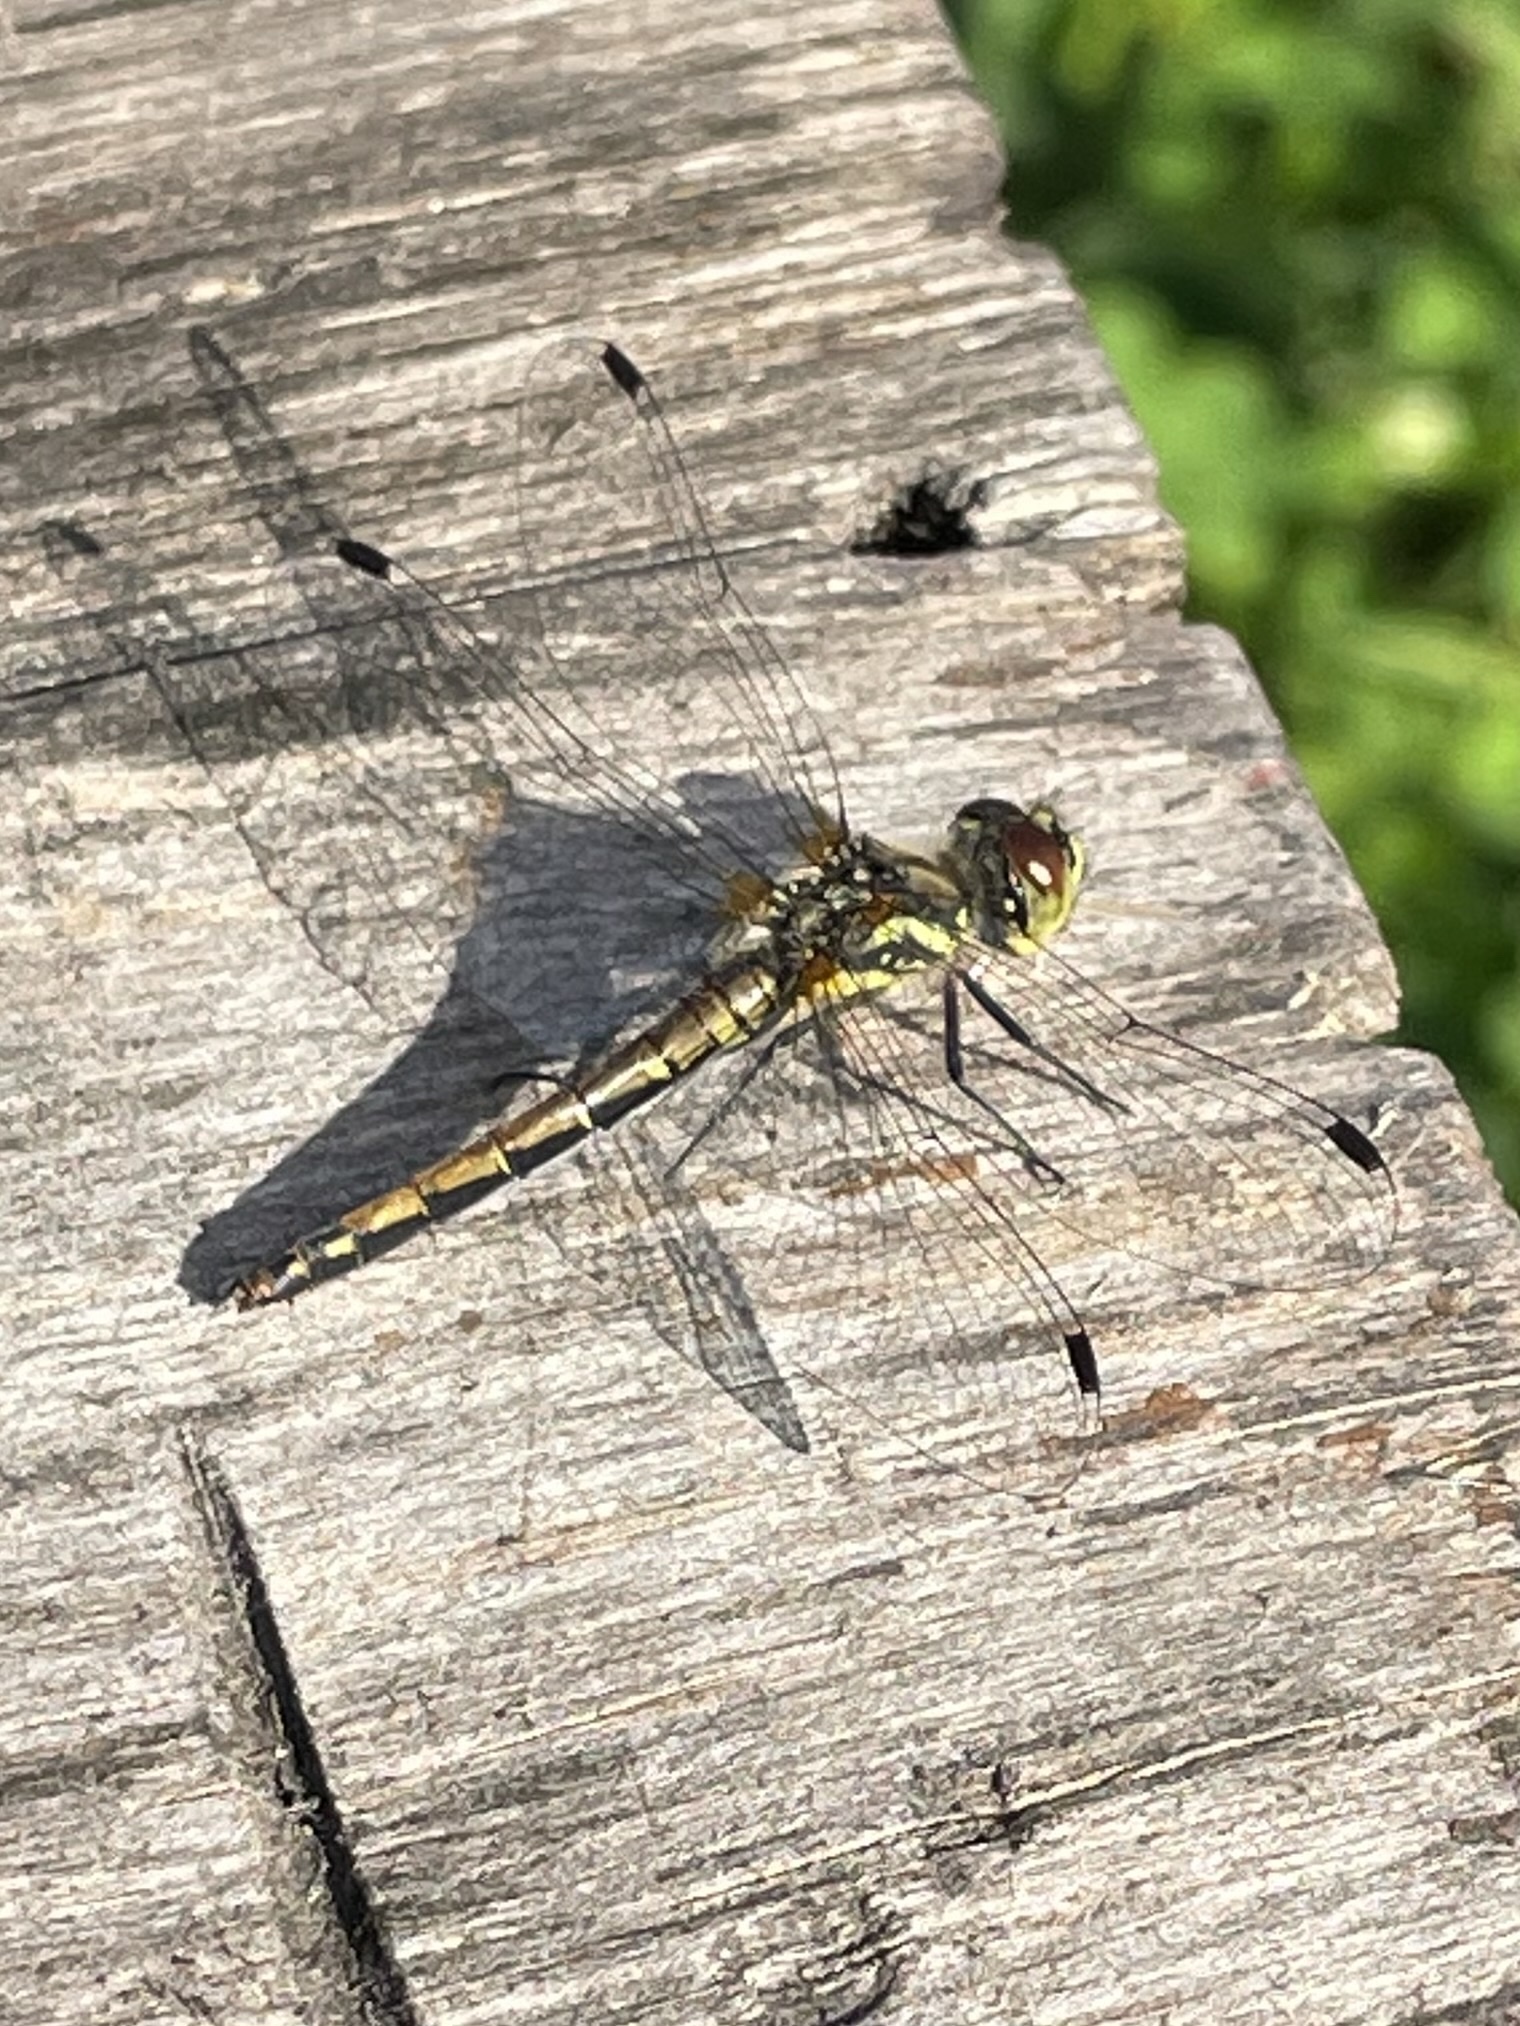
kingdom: Animalia
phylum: Arthropoda
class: Insecta
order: Odonata
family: Libellulidae
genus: Sympetrum
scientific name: Sympetrum danae
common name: Black darter
